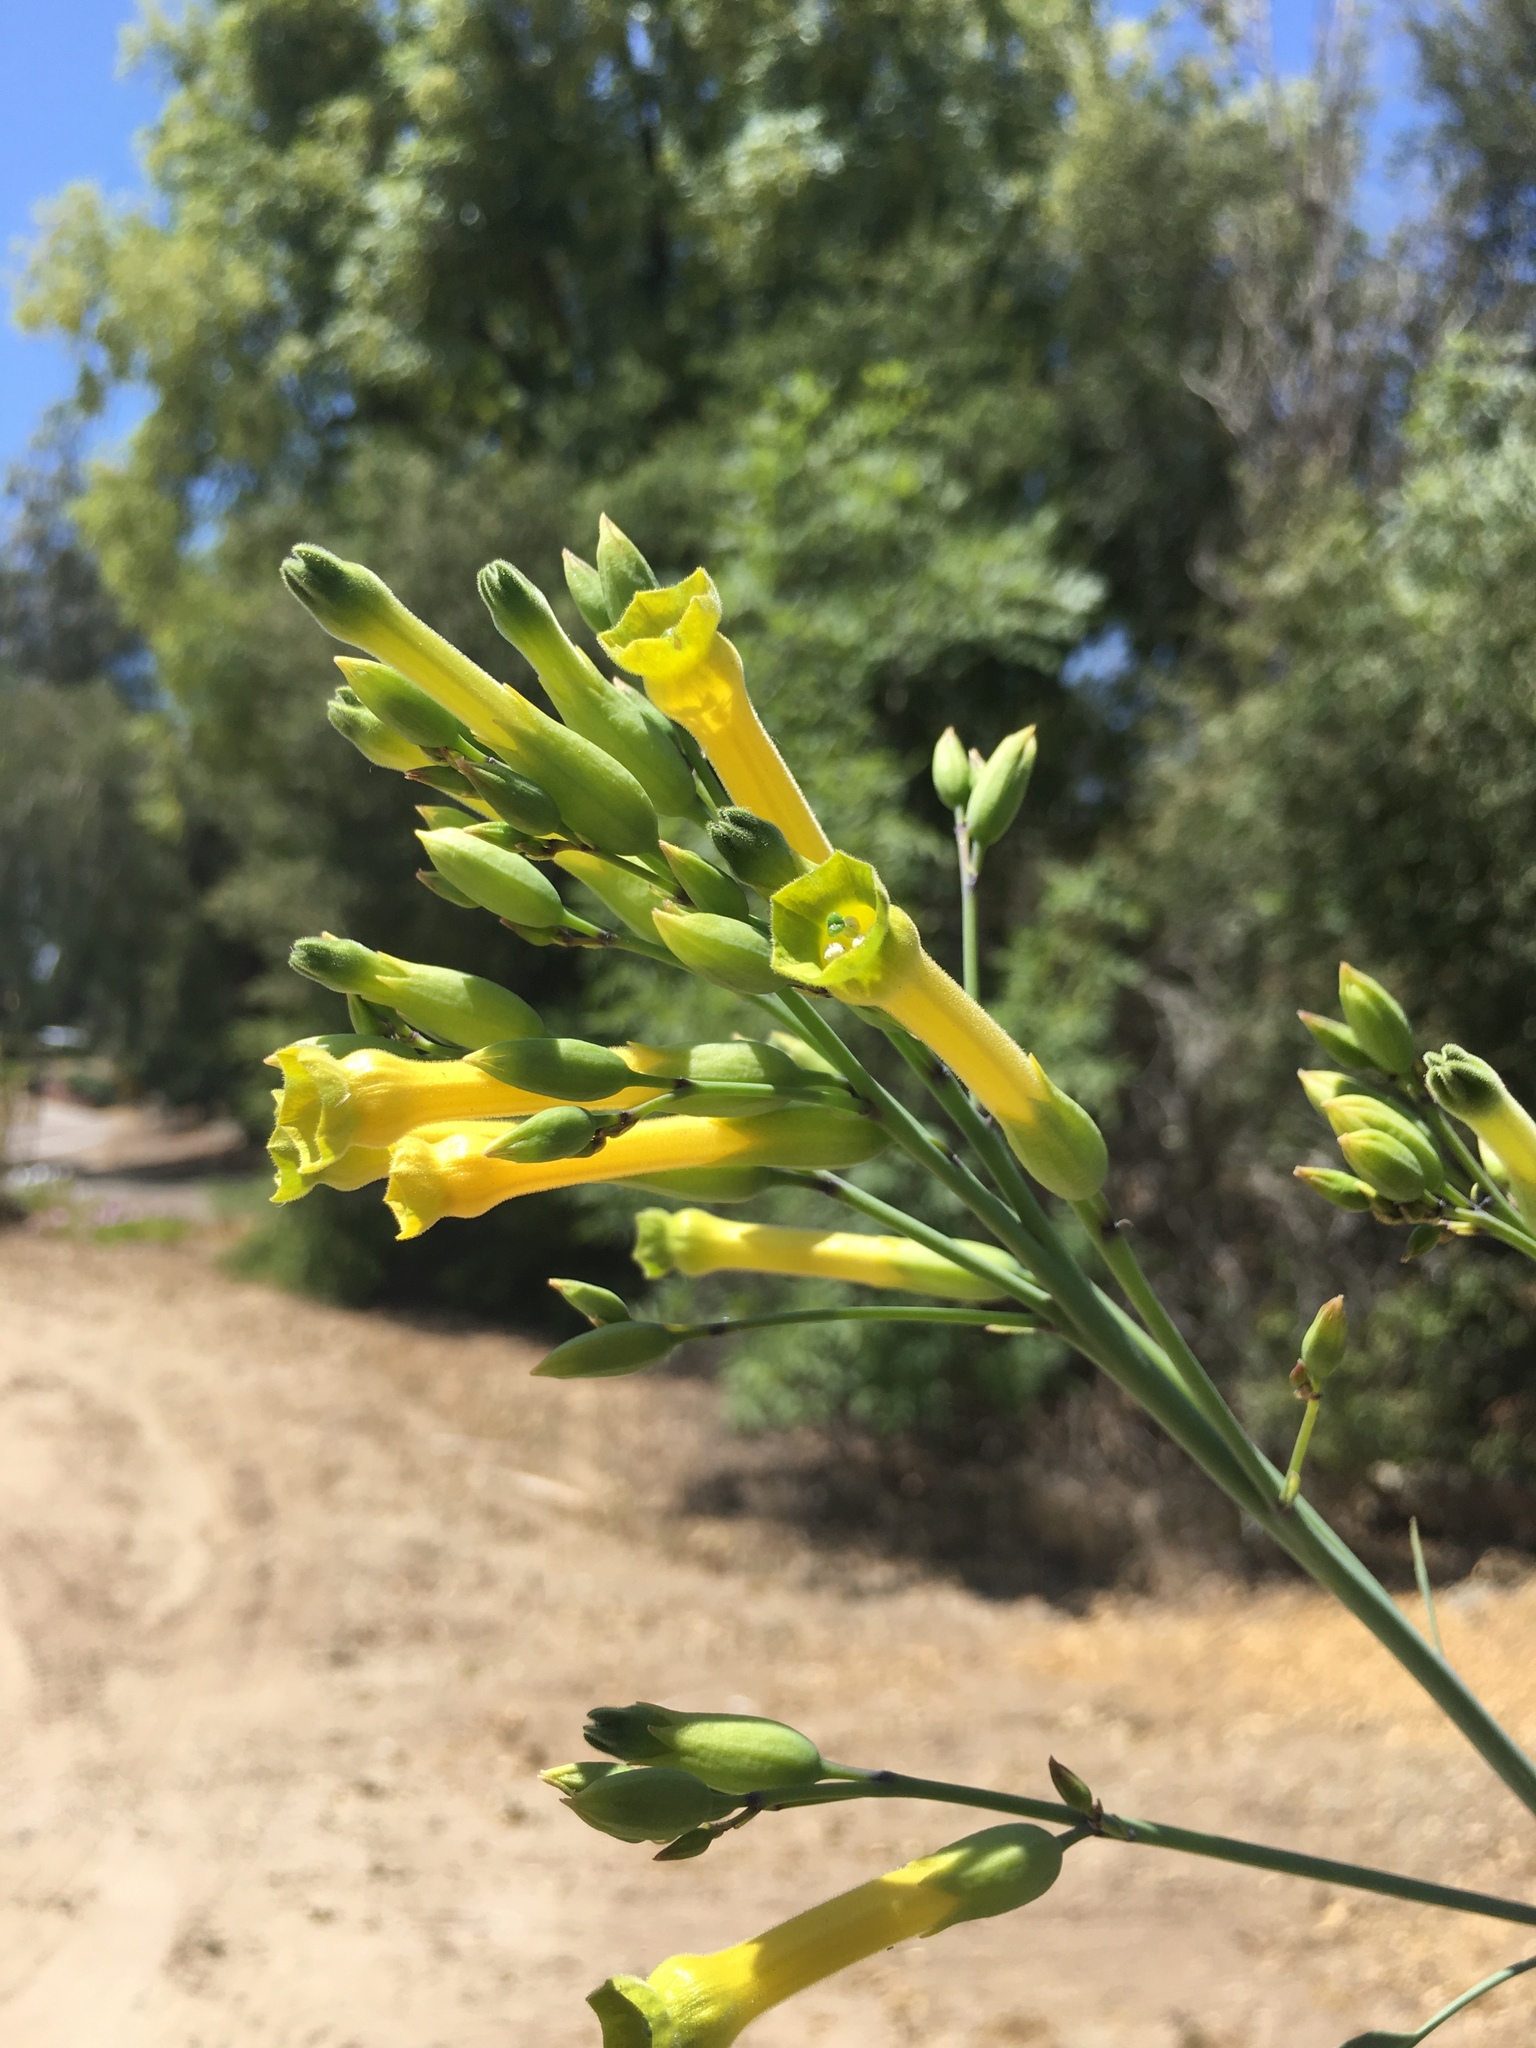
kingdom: Plantae
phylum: Tracheophyta
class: Magnoliopsida
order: Solanales
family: Solanaceae
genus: Nicotiana
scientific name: Nicotiana glauca
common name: Tree tobacco
